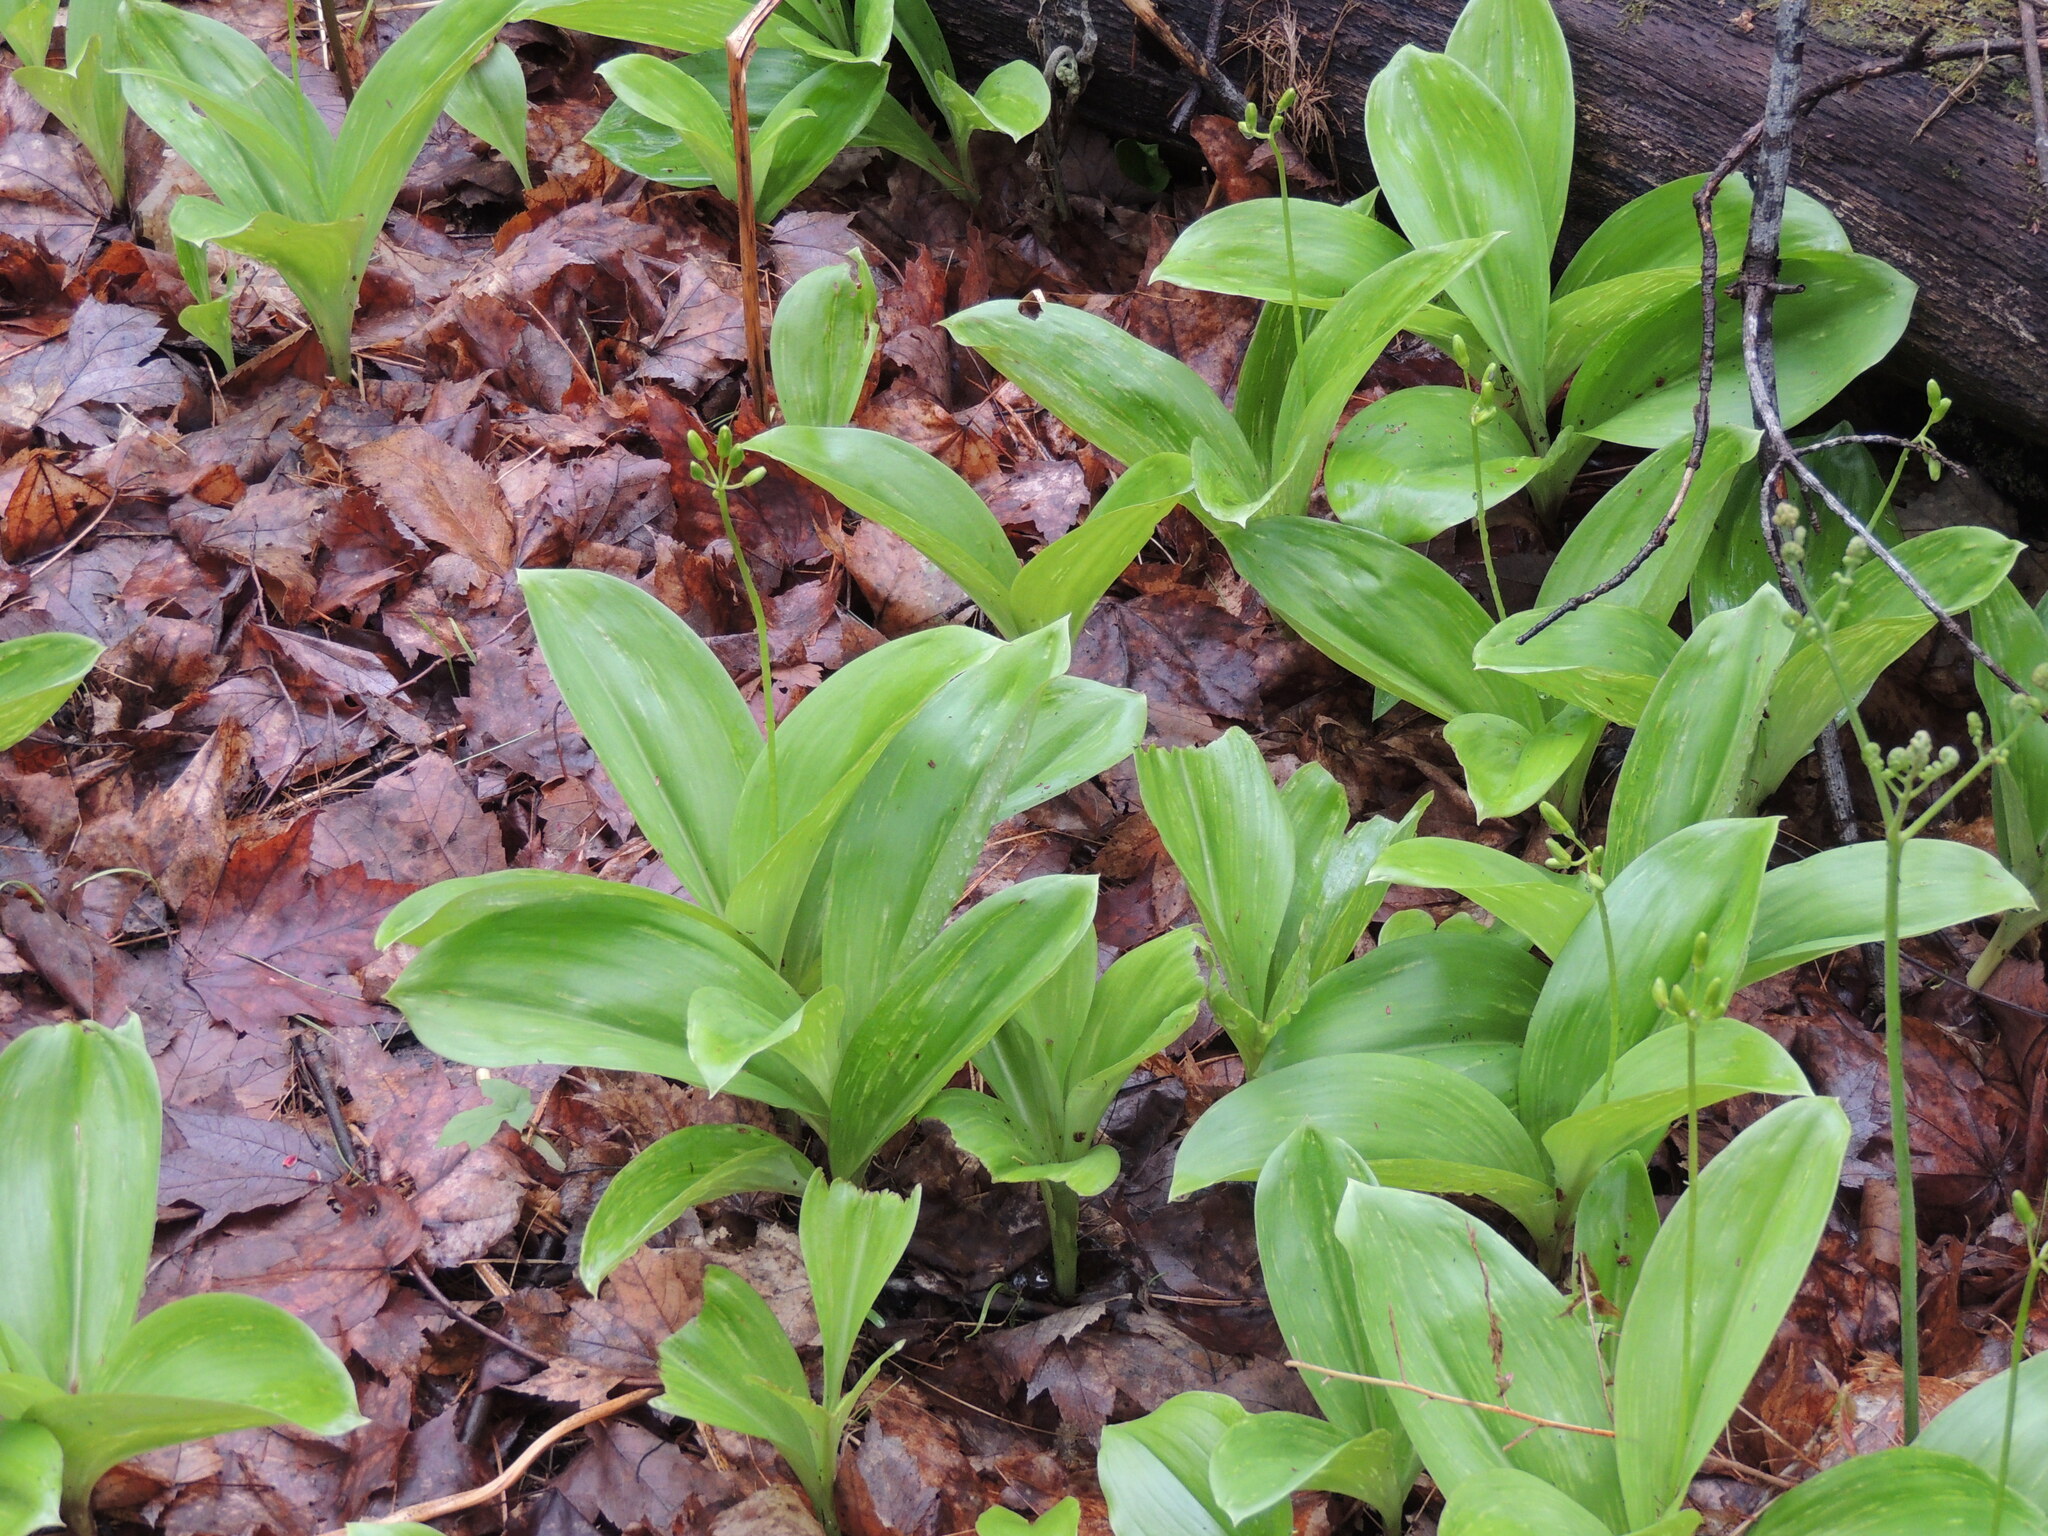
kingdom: Plantae
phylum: Tracheophyta
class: Liliopsida
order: Liliales
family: Liliaceae
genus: Clintonia
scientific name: Clintonia borealis
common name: Yellow clintonia
